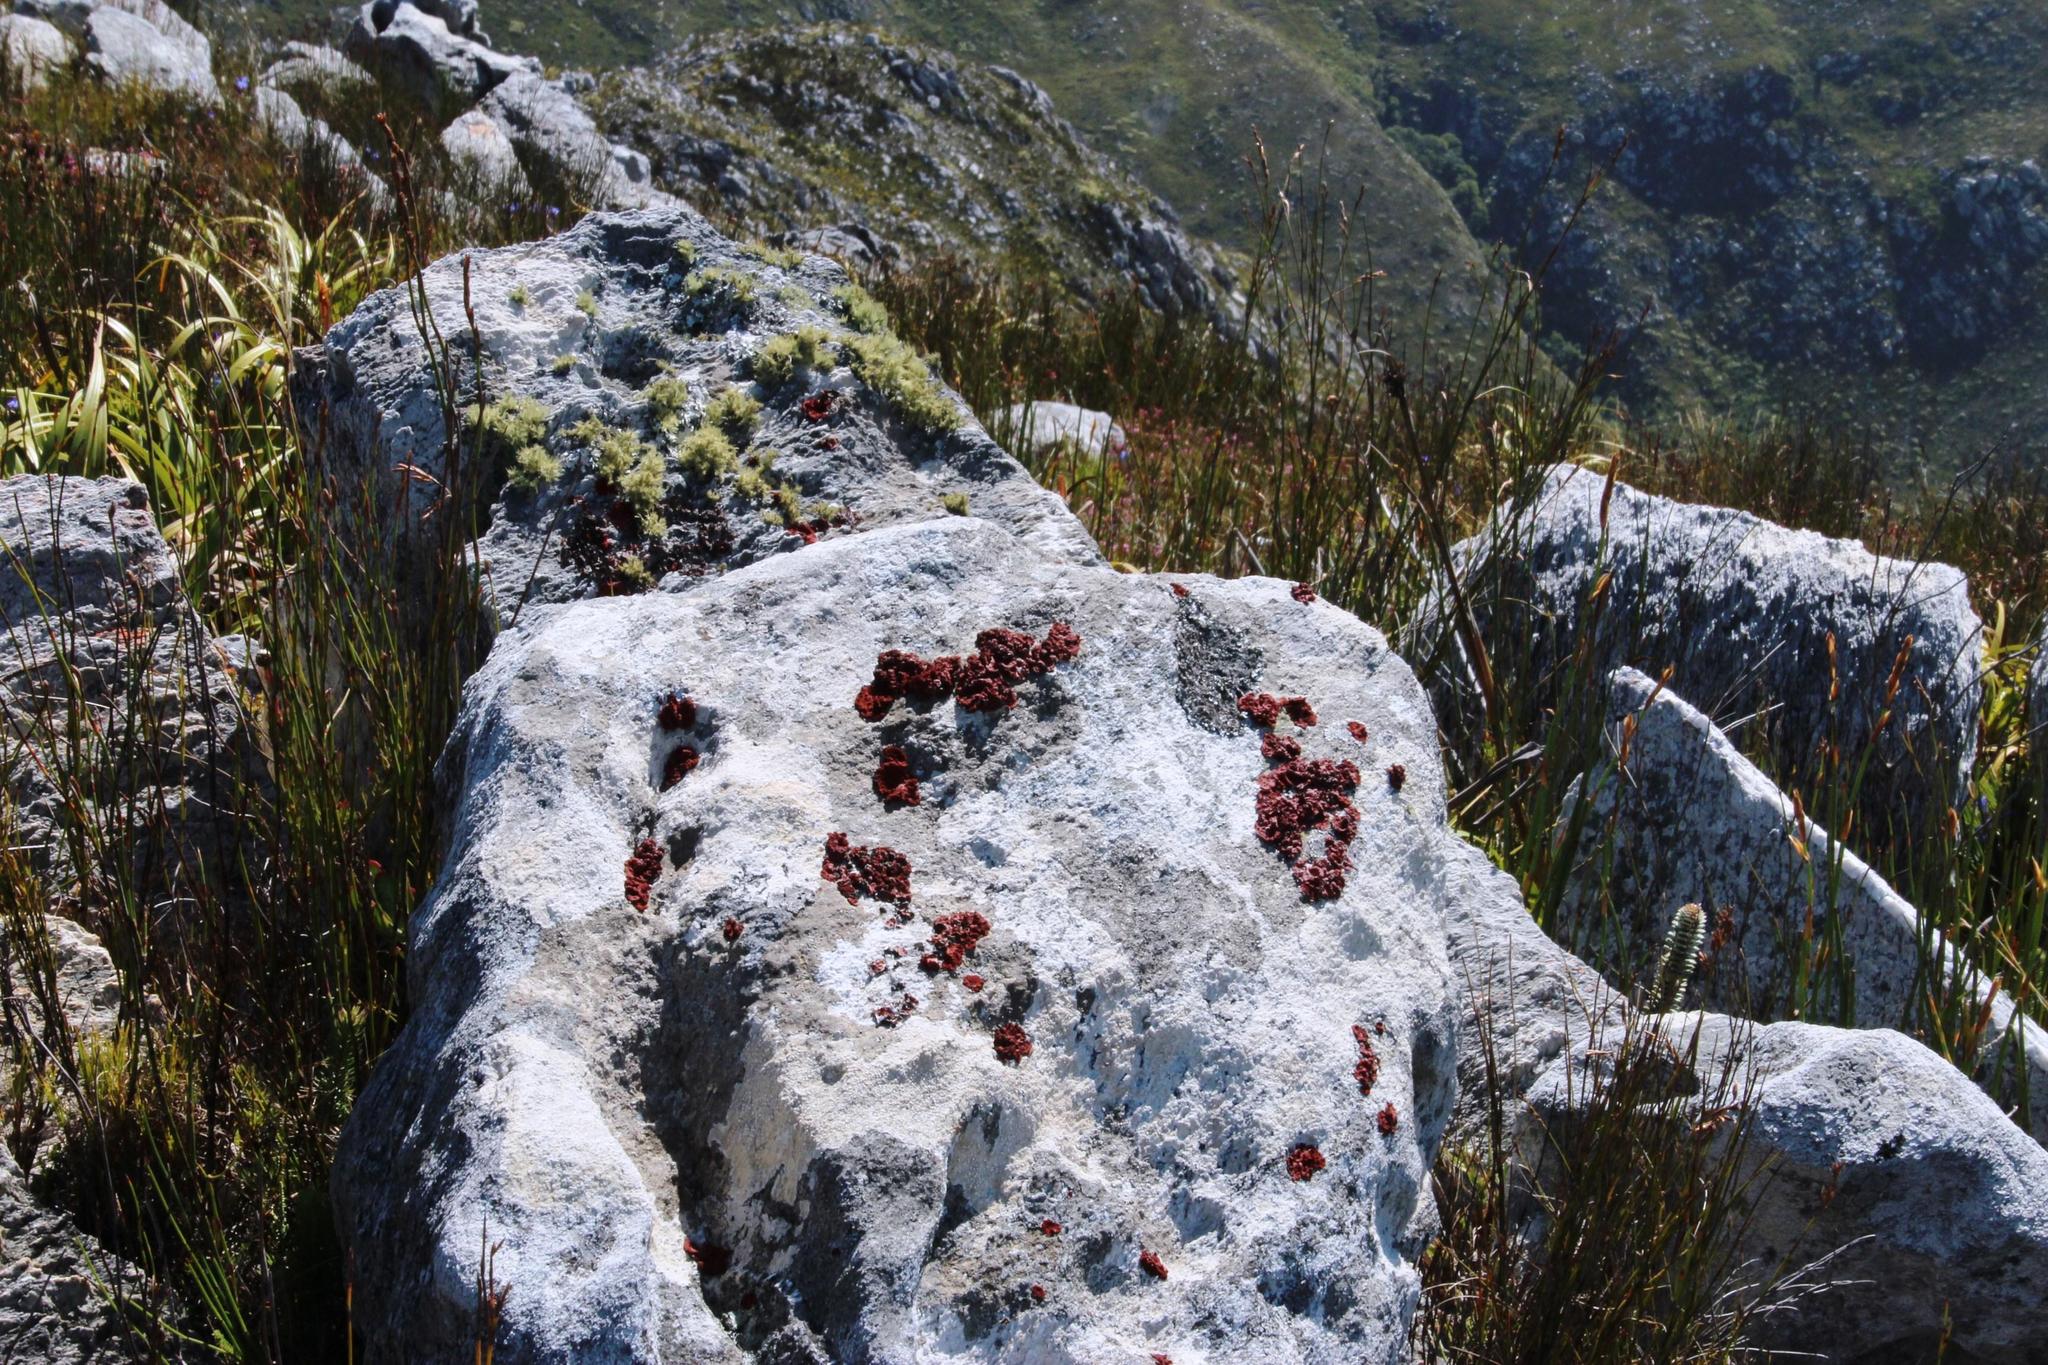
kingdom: Fungi
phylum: Ascomycota
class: Lecanoromycetes
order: Umbilicariales
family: Umbilicariaceae
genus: Lasallia
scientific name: Lasallia rubiginosa
